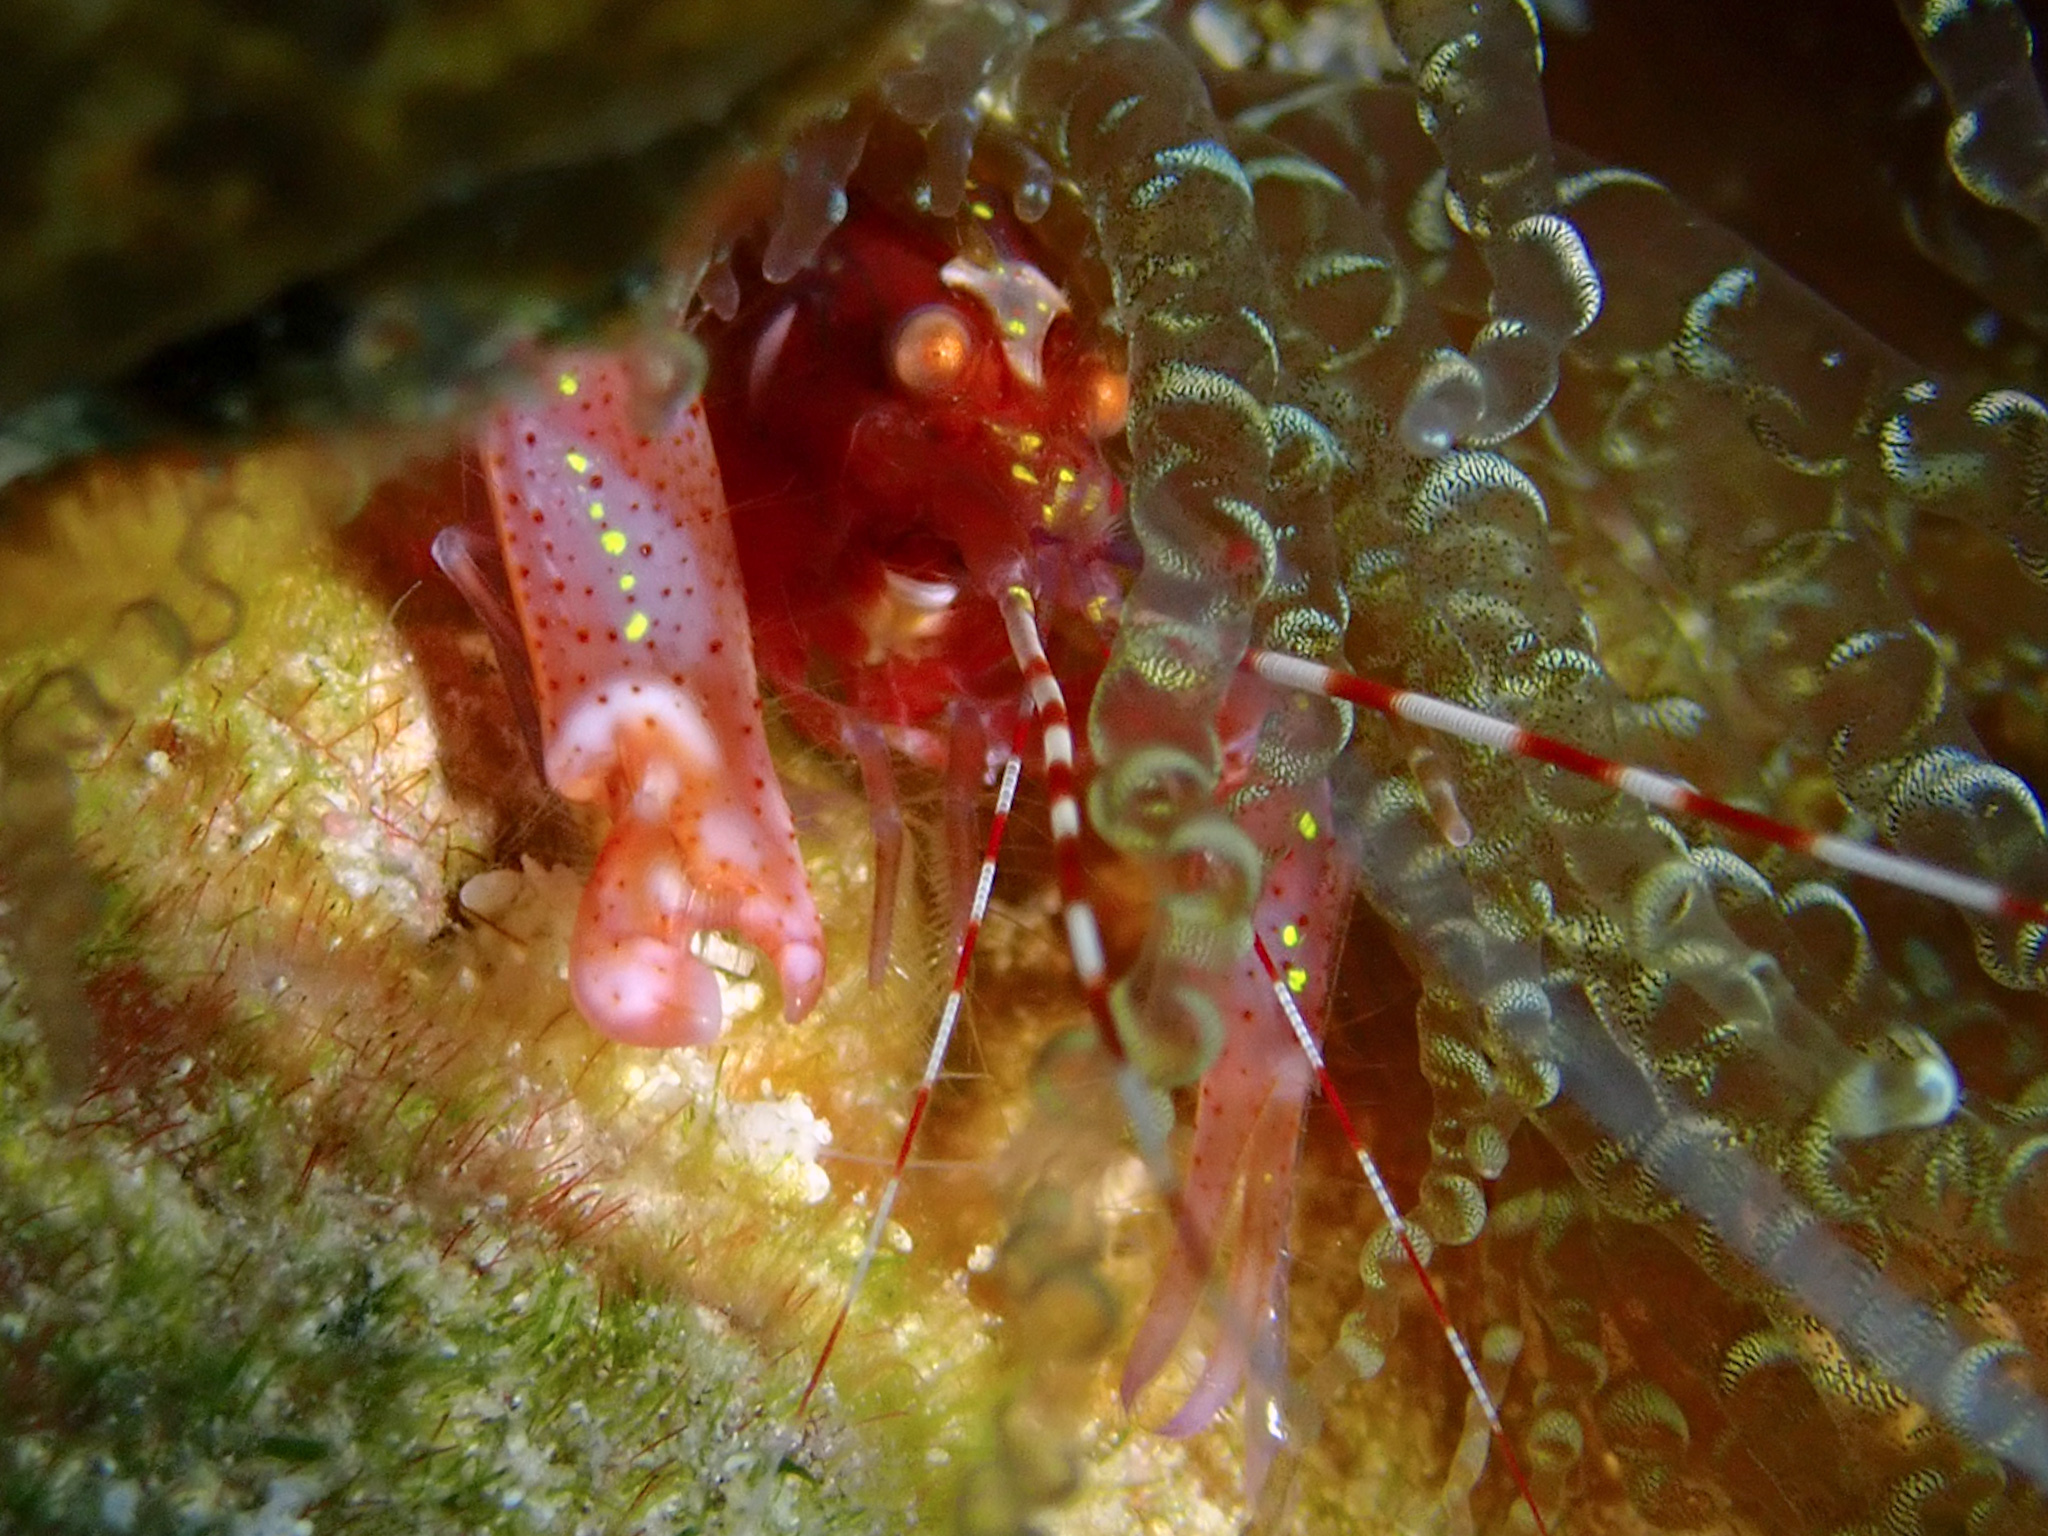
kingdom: Animalia
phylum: Arthropoda
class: Malacostraca
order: Decapoda
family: Alpheidae
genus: Alpheus
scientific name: Alpheus armatus
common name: Brown snapping shrimp
